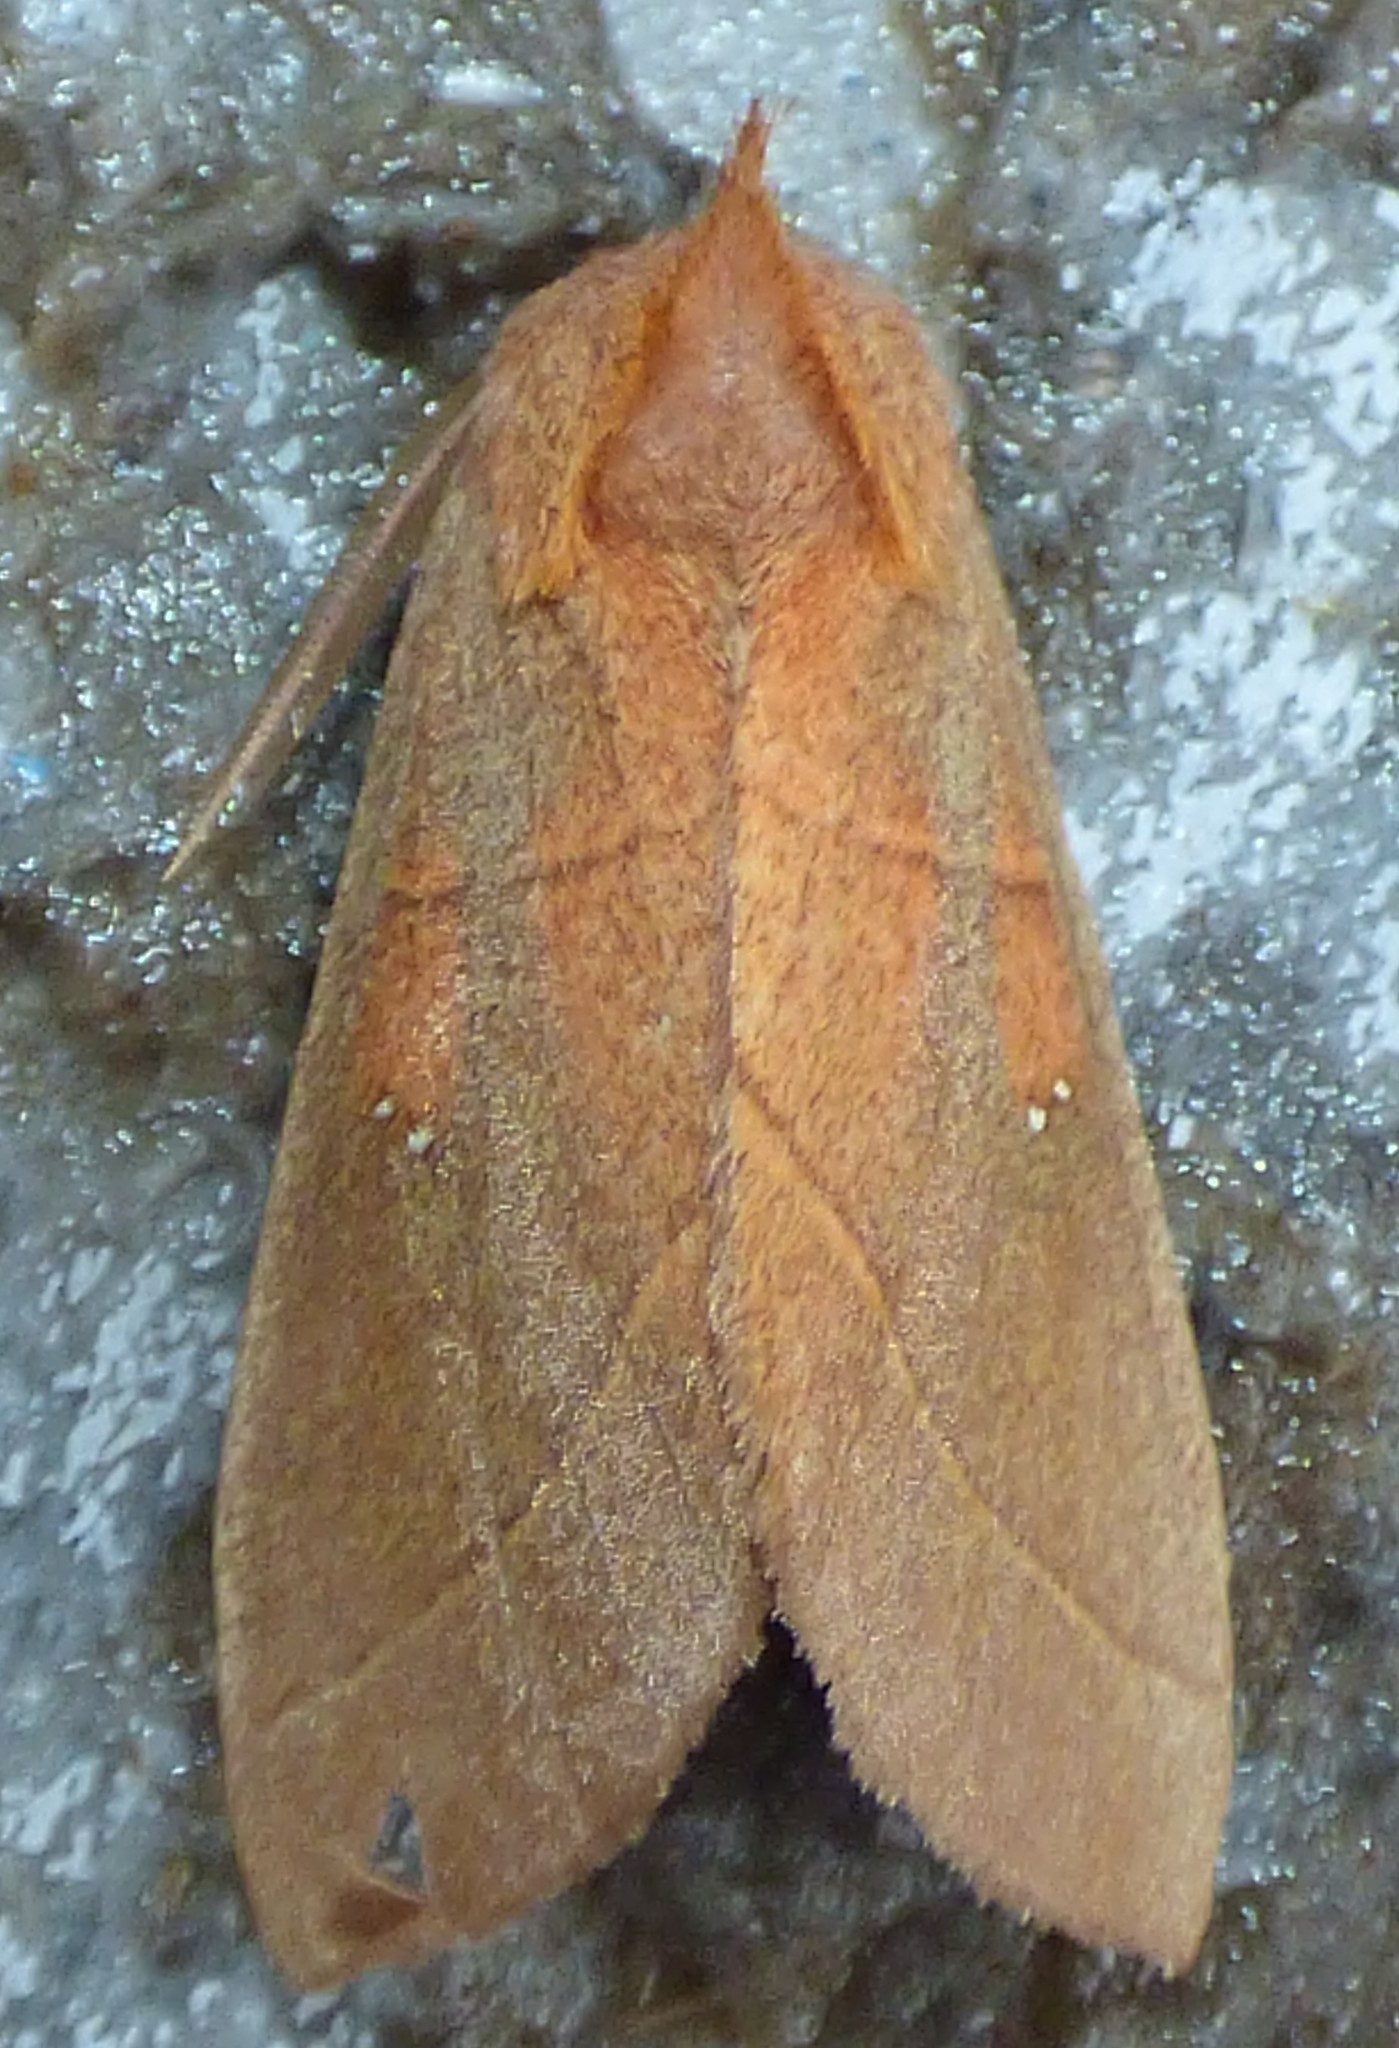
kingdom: Animalia
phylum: Arthropoda
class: Insecta
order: Lepidoptera
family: Notodontidae
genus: Nadata
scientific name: Nadata gibbosa
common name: White-dotted prominent
